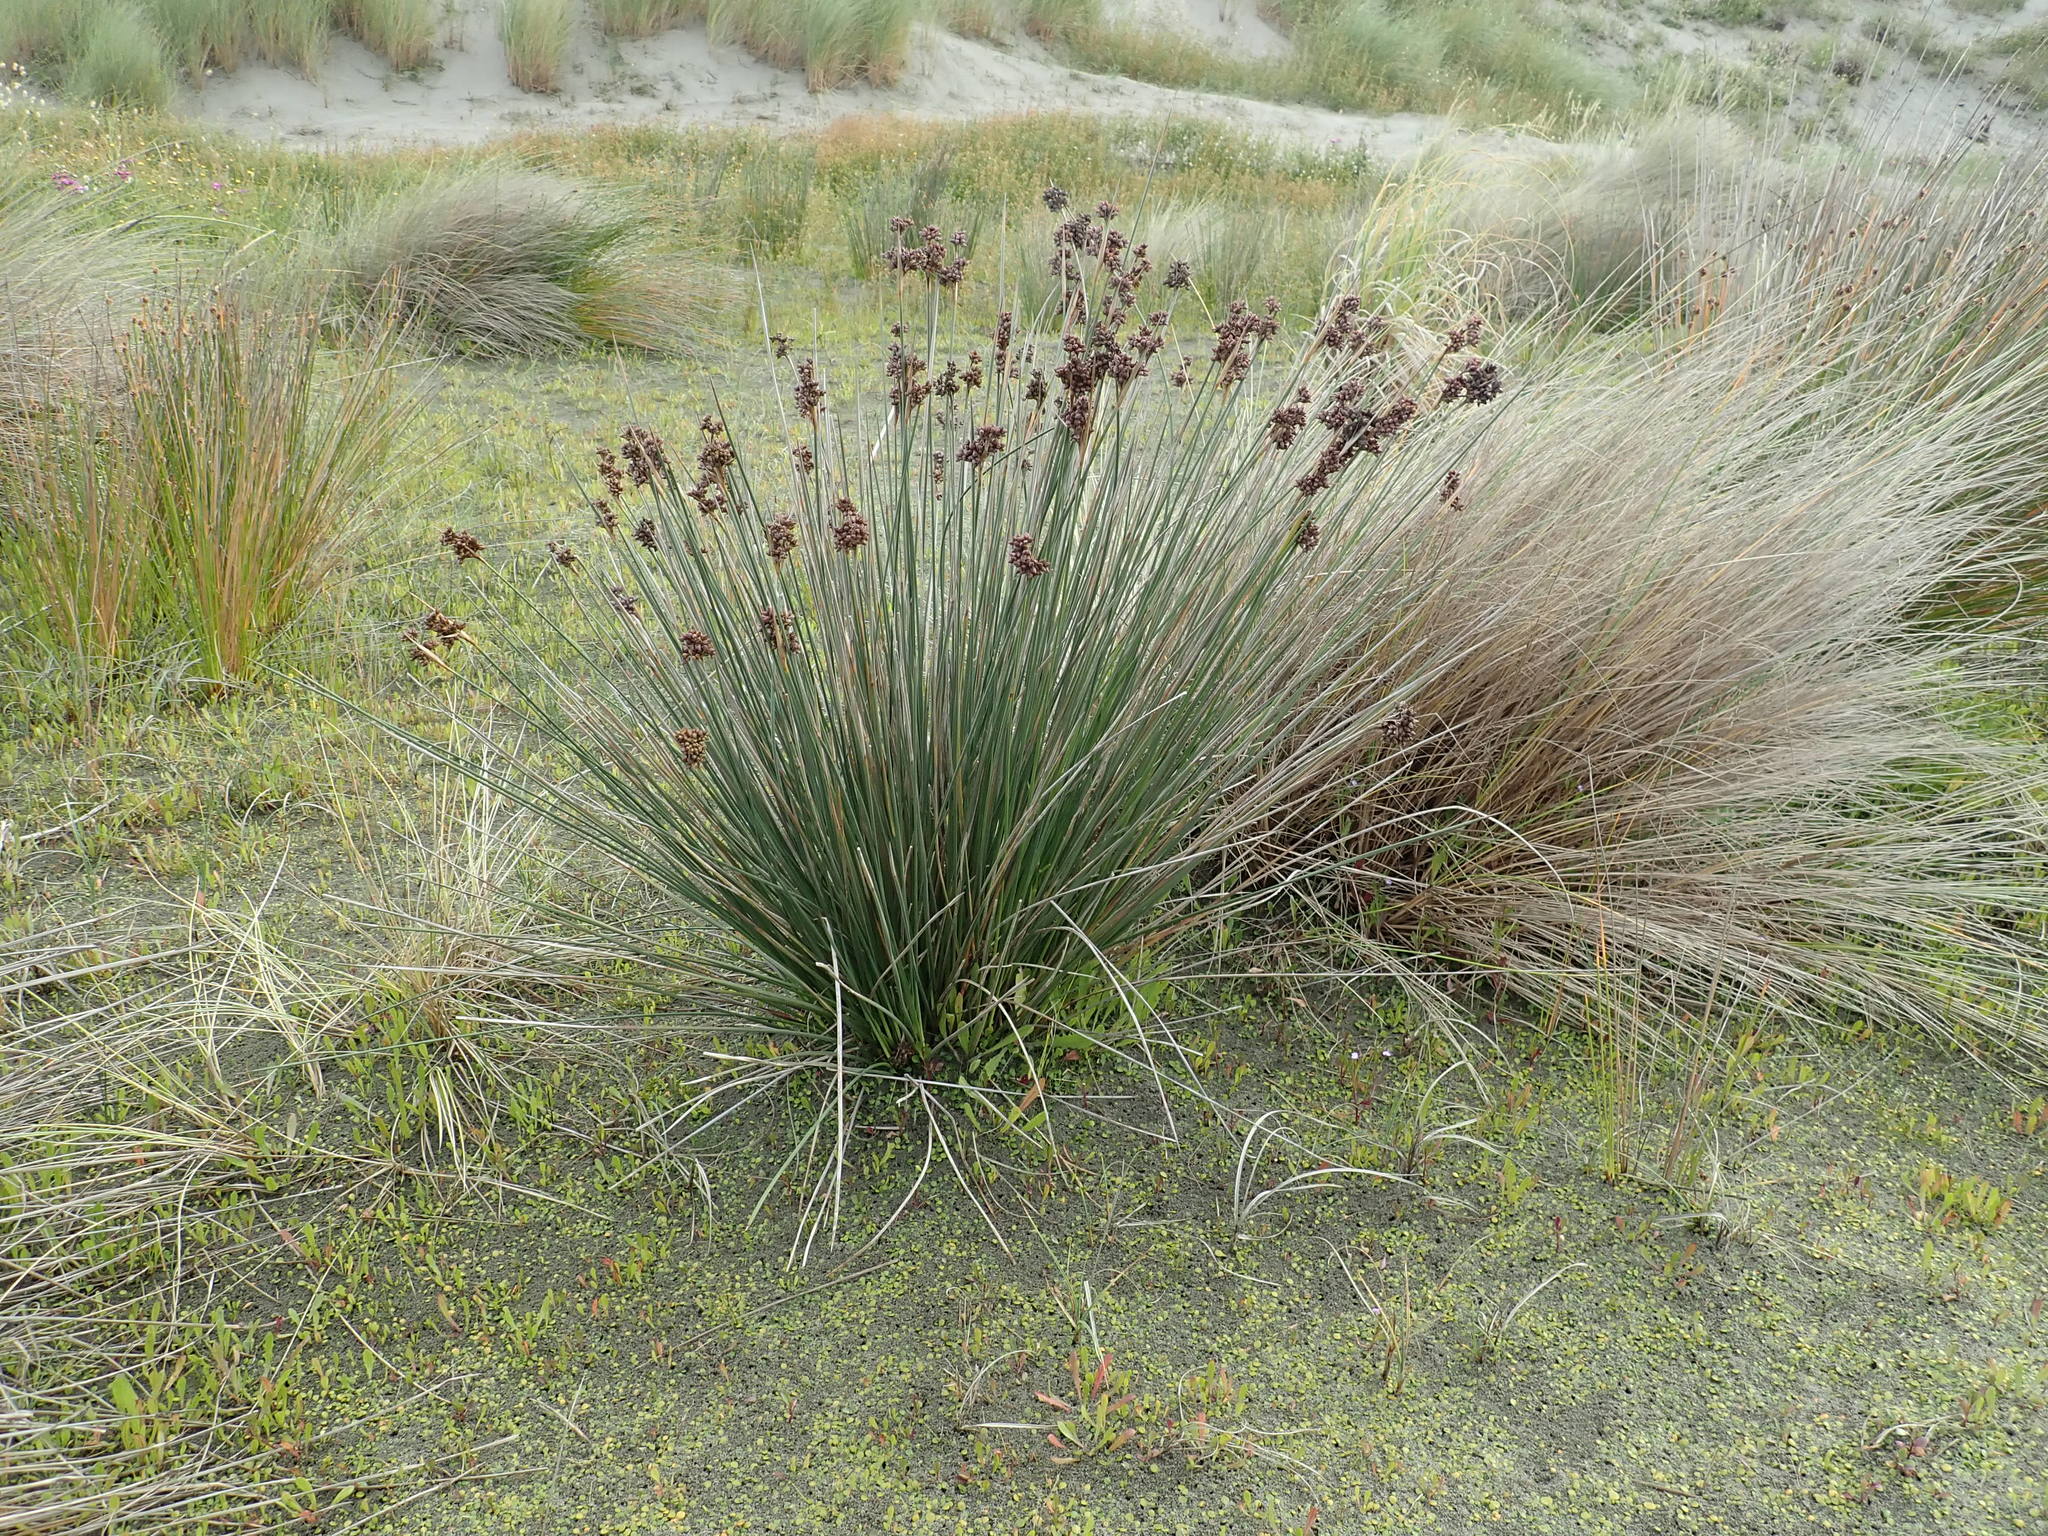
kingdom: Plantae
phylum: Tracheophyta
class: Liliopsida
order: Poales
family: Juncaceae
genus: Juncus
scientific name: Juncus acutus
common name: Sharp rush
